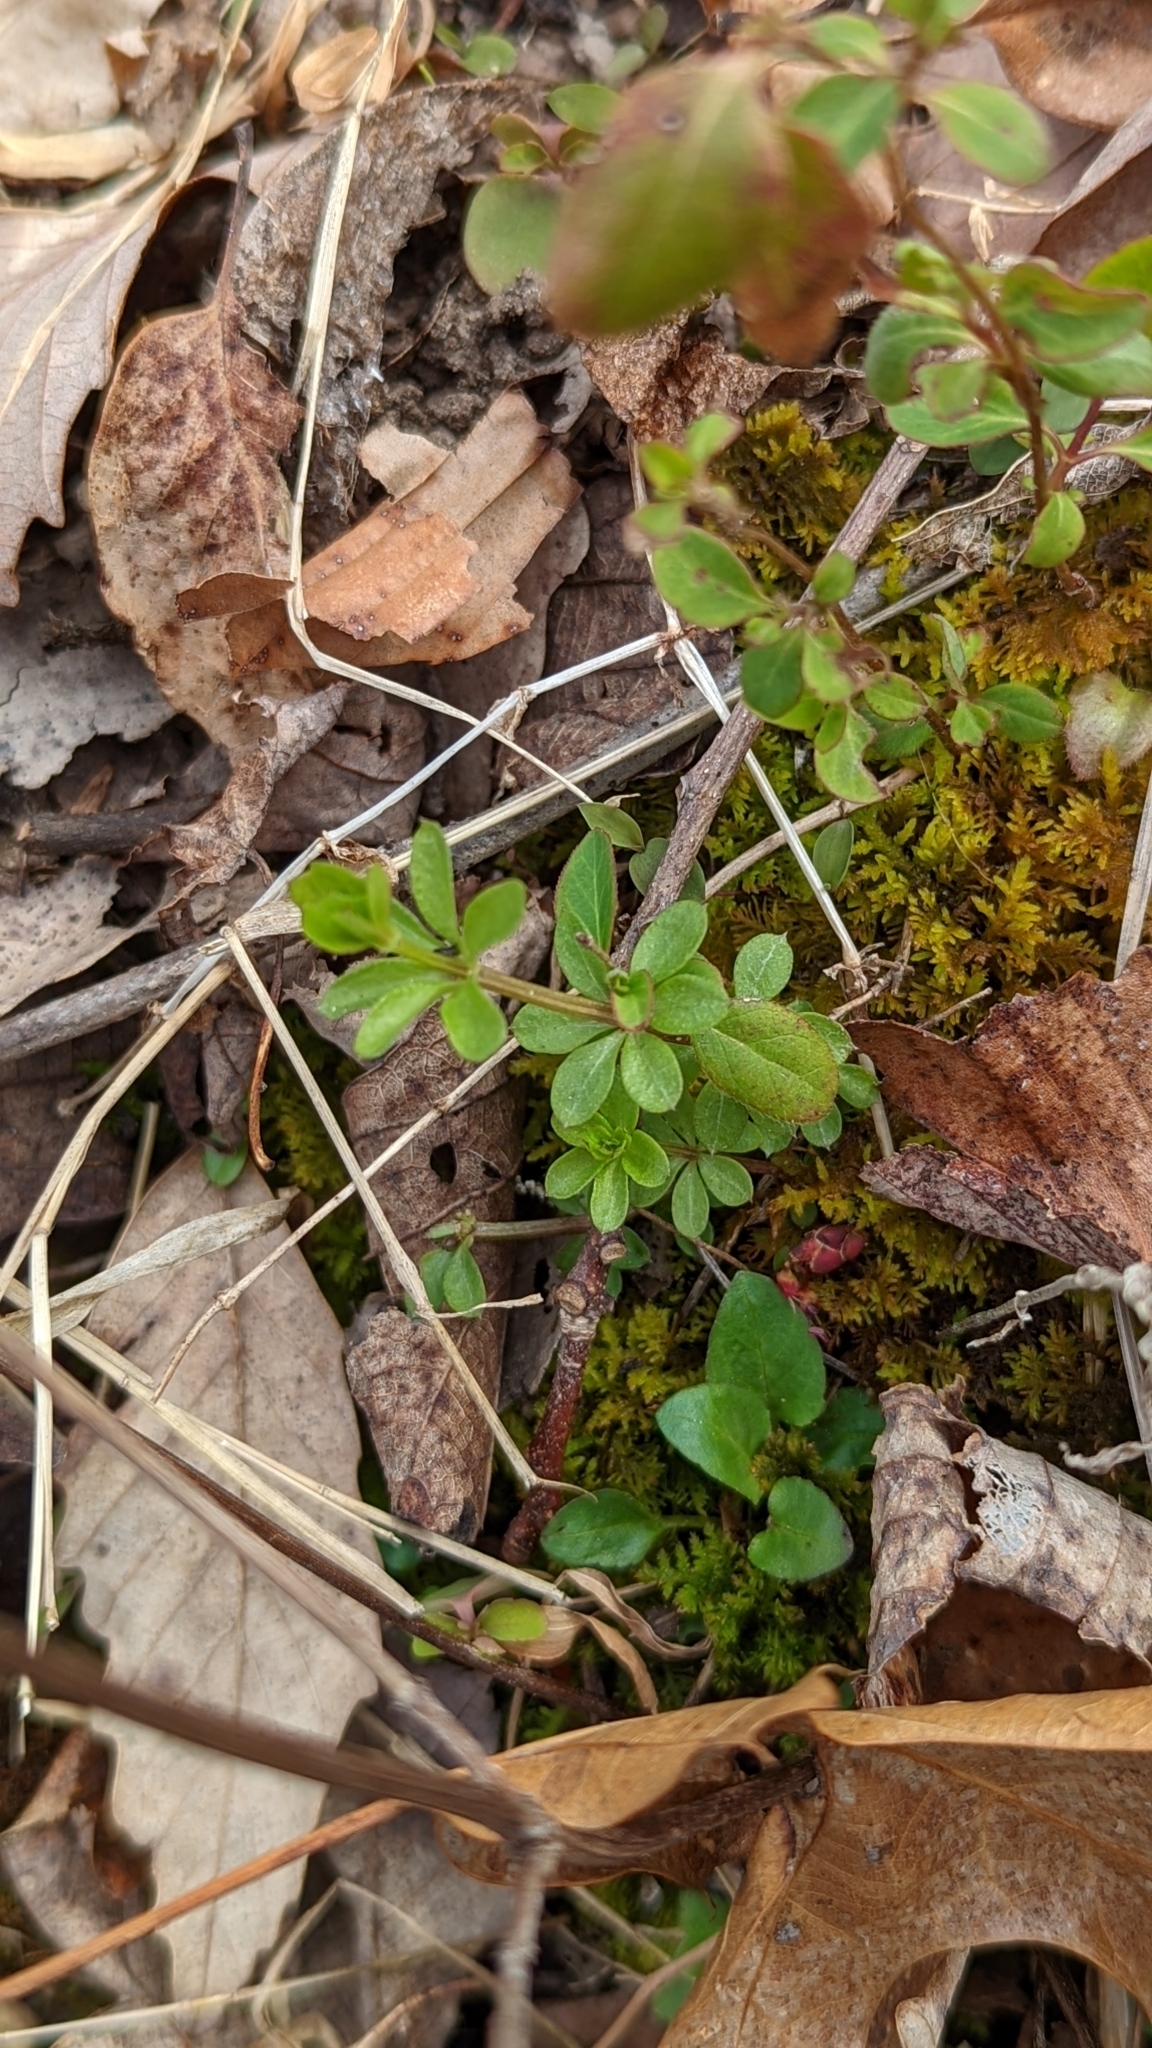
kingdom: Plantae
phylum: Tracheophyta
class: Magnoliopsida
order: Gentianales
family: Rubiaceae
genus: Galium
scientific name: Galium triflorum
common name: Fragrant bedstraw
